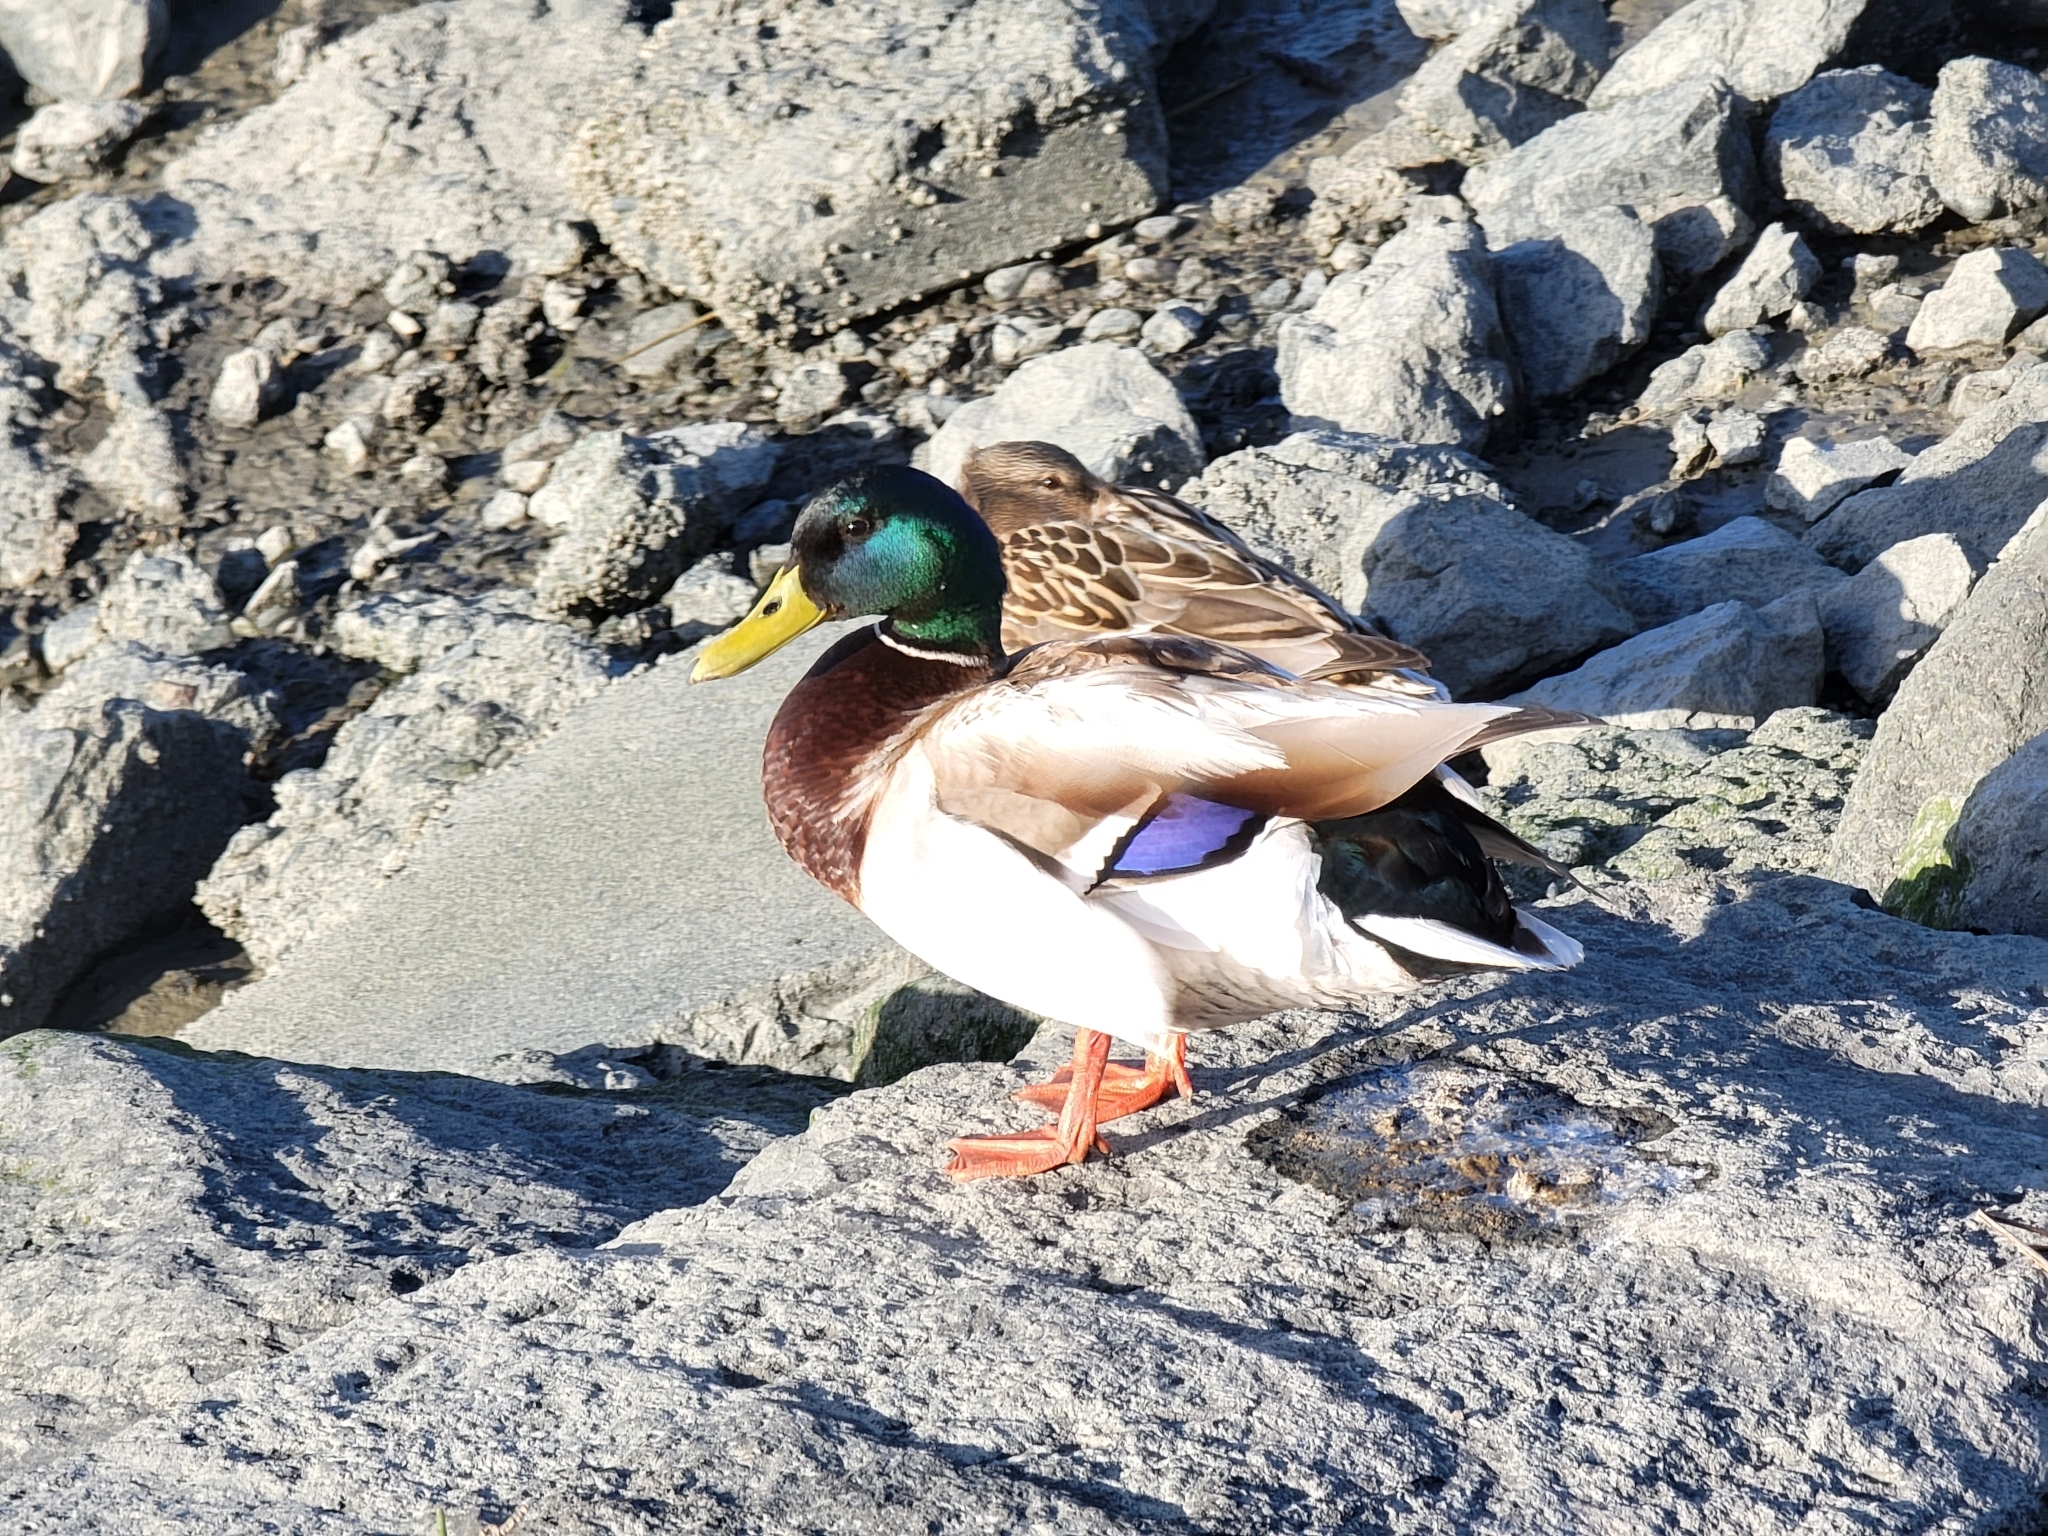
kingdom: Animalia
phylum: Chordata
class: Aves
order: Anseriformes
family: Anatidae
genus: Anas
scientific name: Anas platyrhynchos
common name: Mallard
